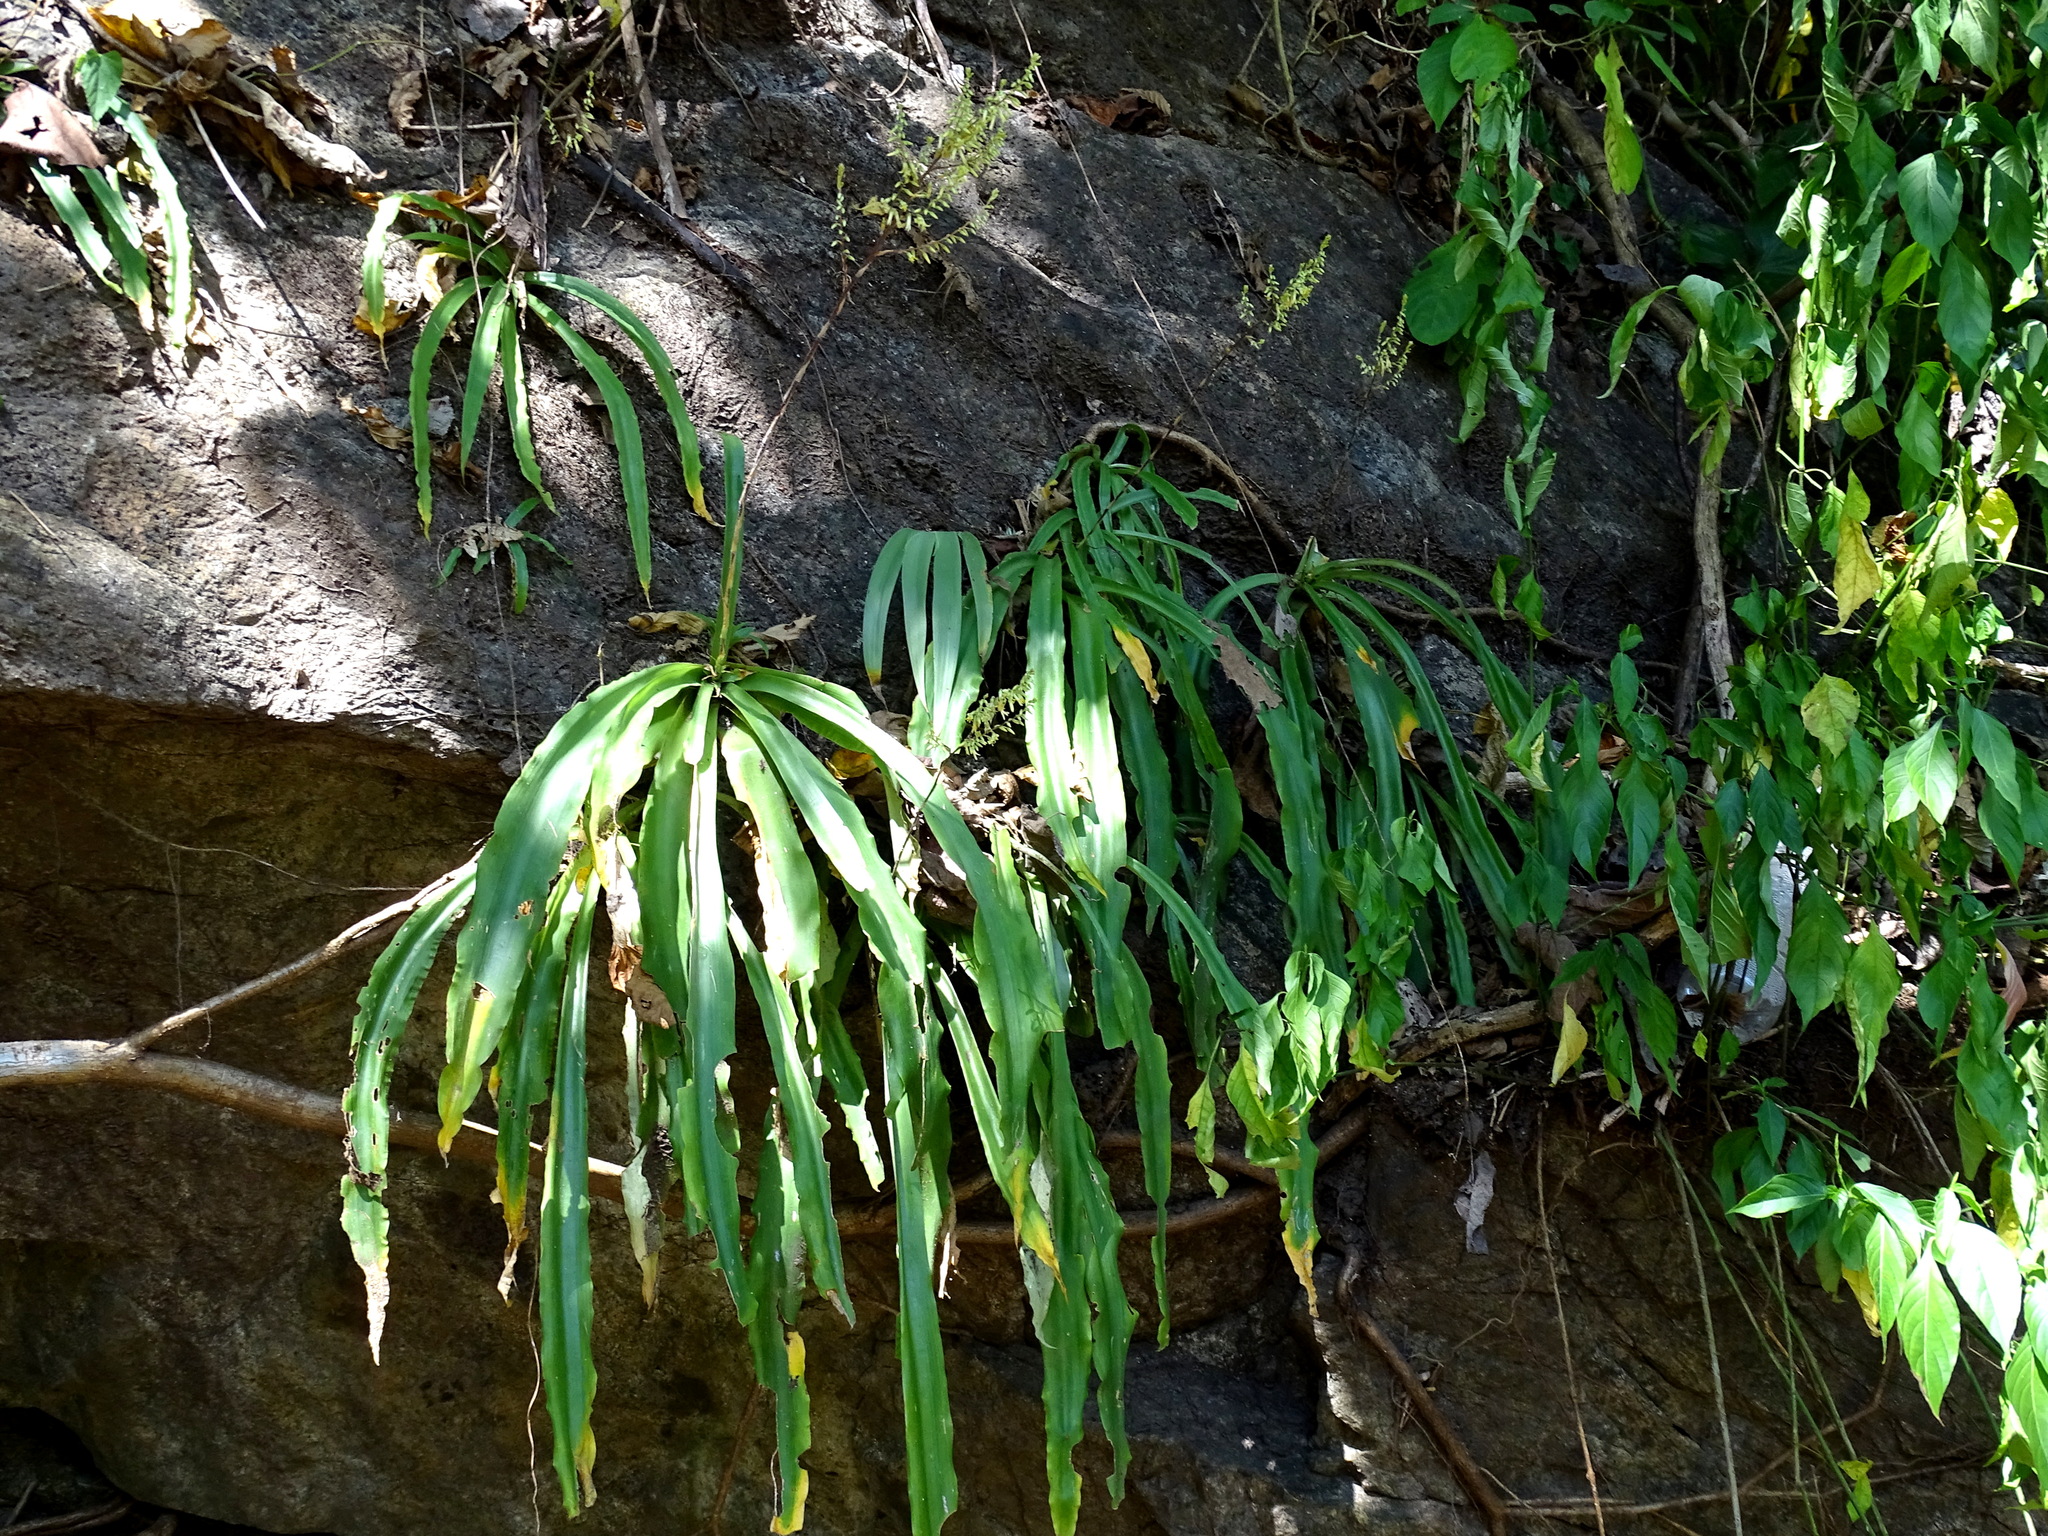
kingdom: Plantae
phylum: Tracheophyta
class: Liliopsida
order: Poales
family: Bromeliaceae
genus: Fosterella
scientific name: Fosterella micrantha
